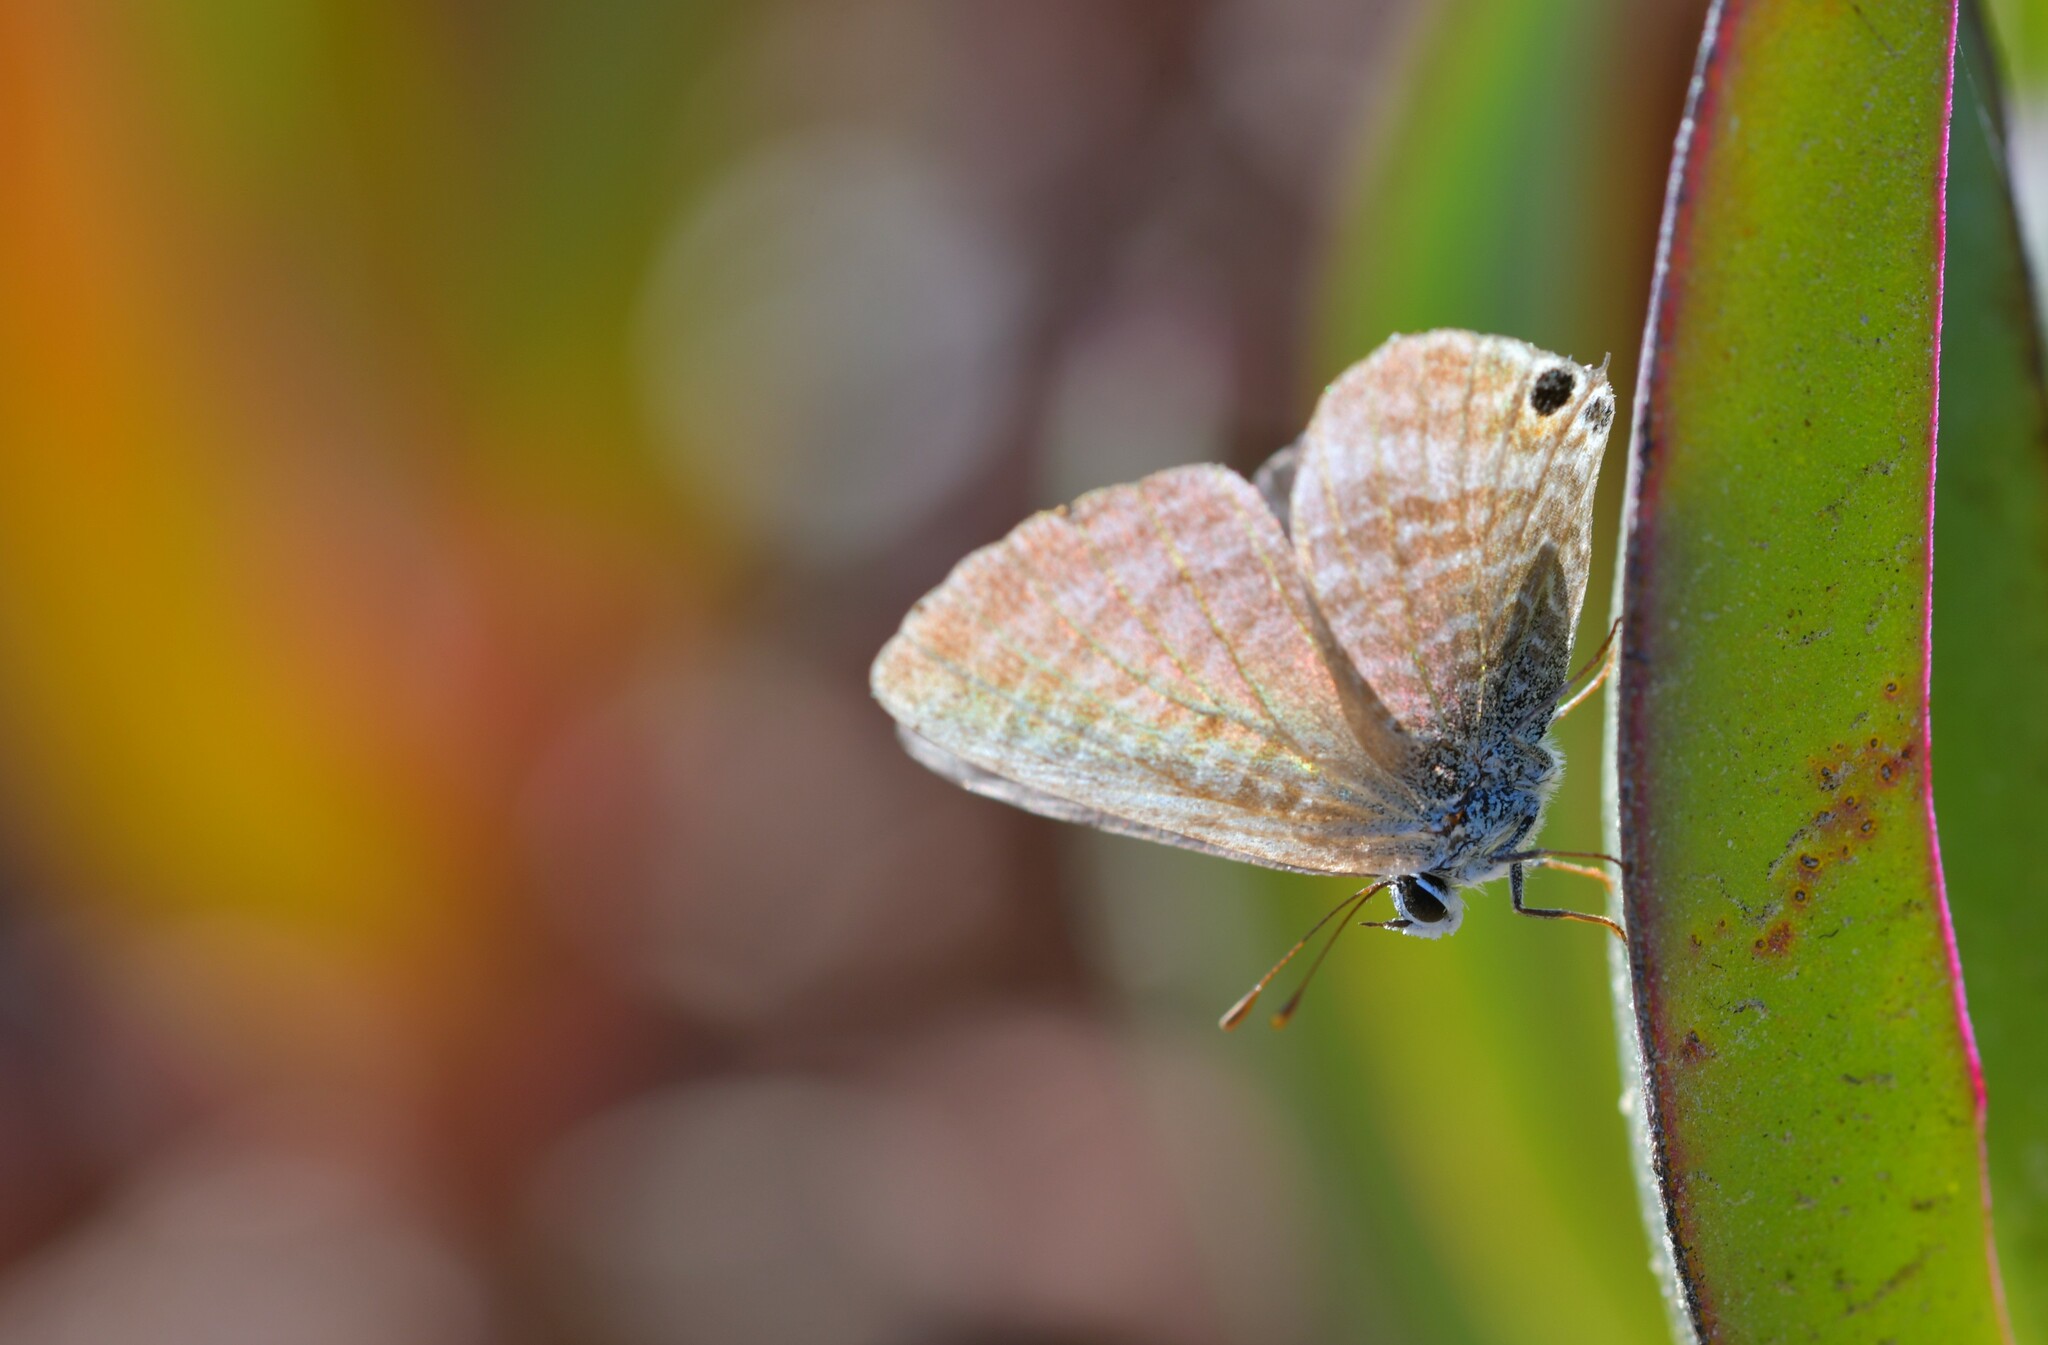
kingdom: Animalia
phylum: Arthropoda
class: Insecta
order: Lepidoptera
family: Lycaenidae
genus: Lampides
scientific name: Lampides boeticus
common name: Long-tailed blue
